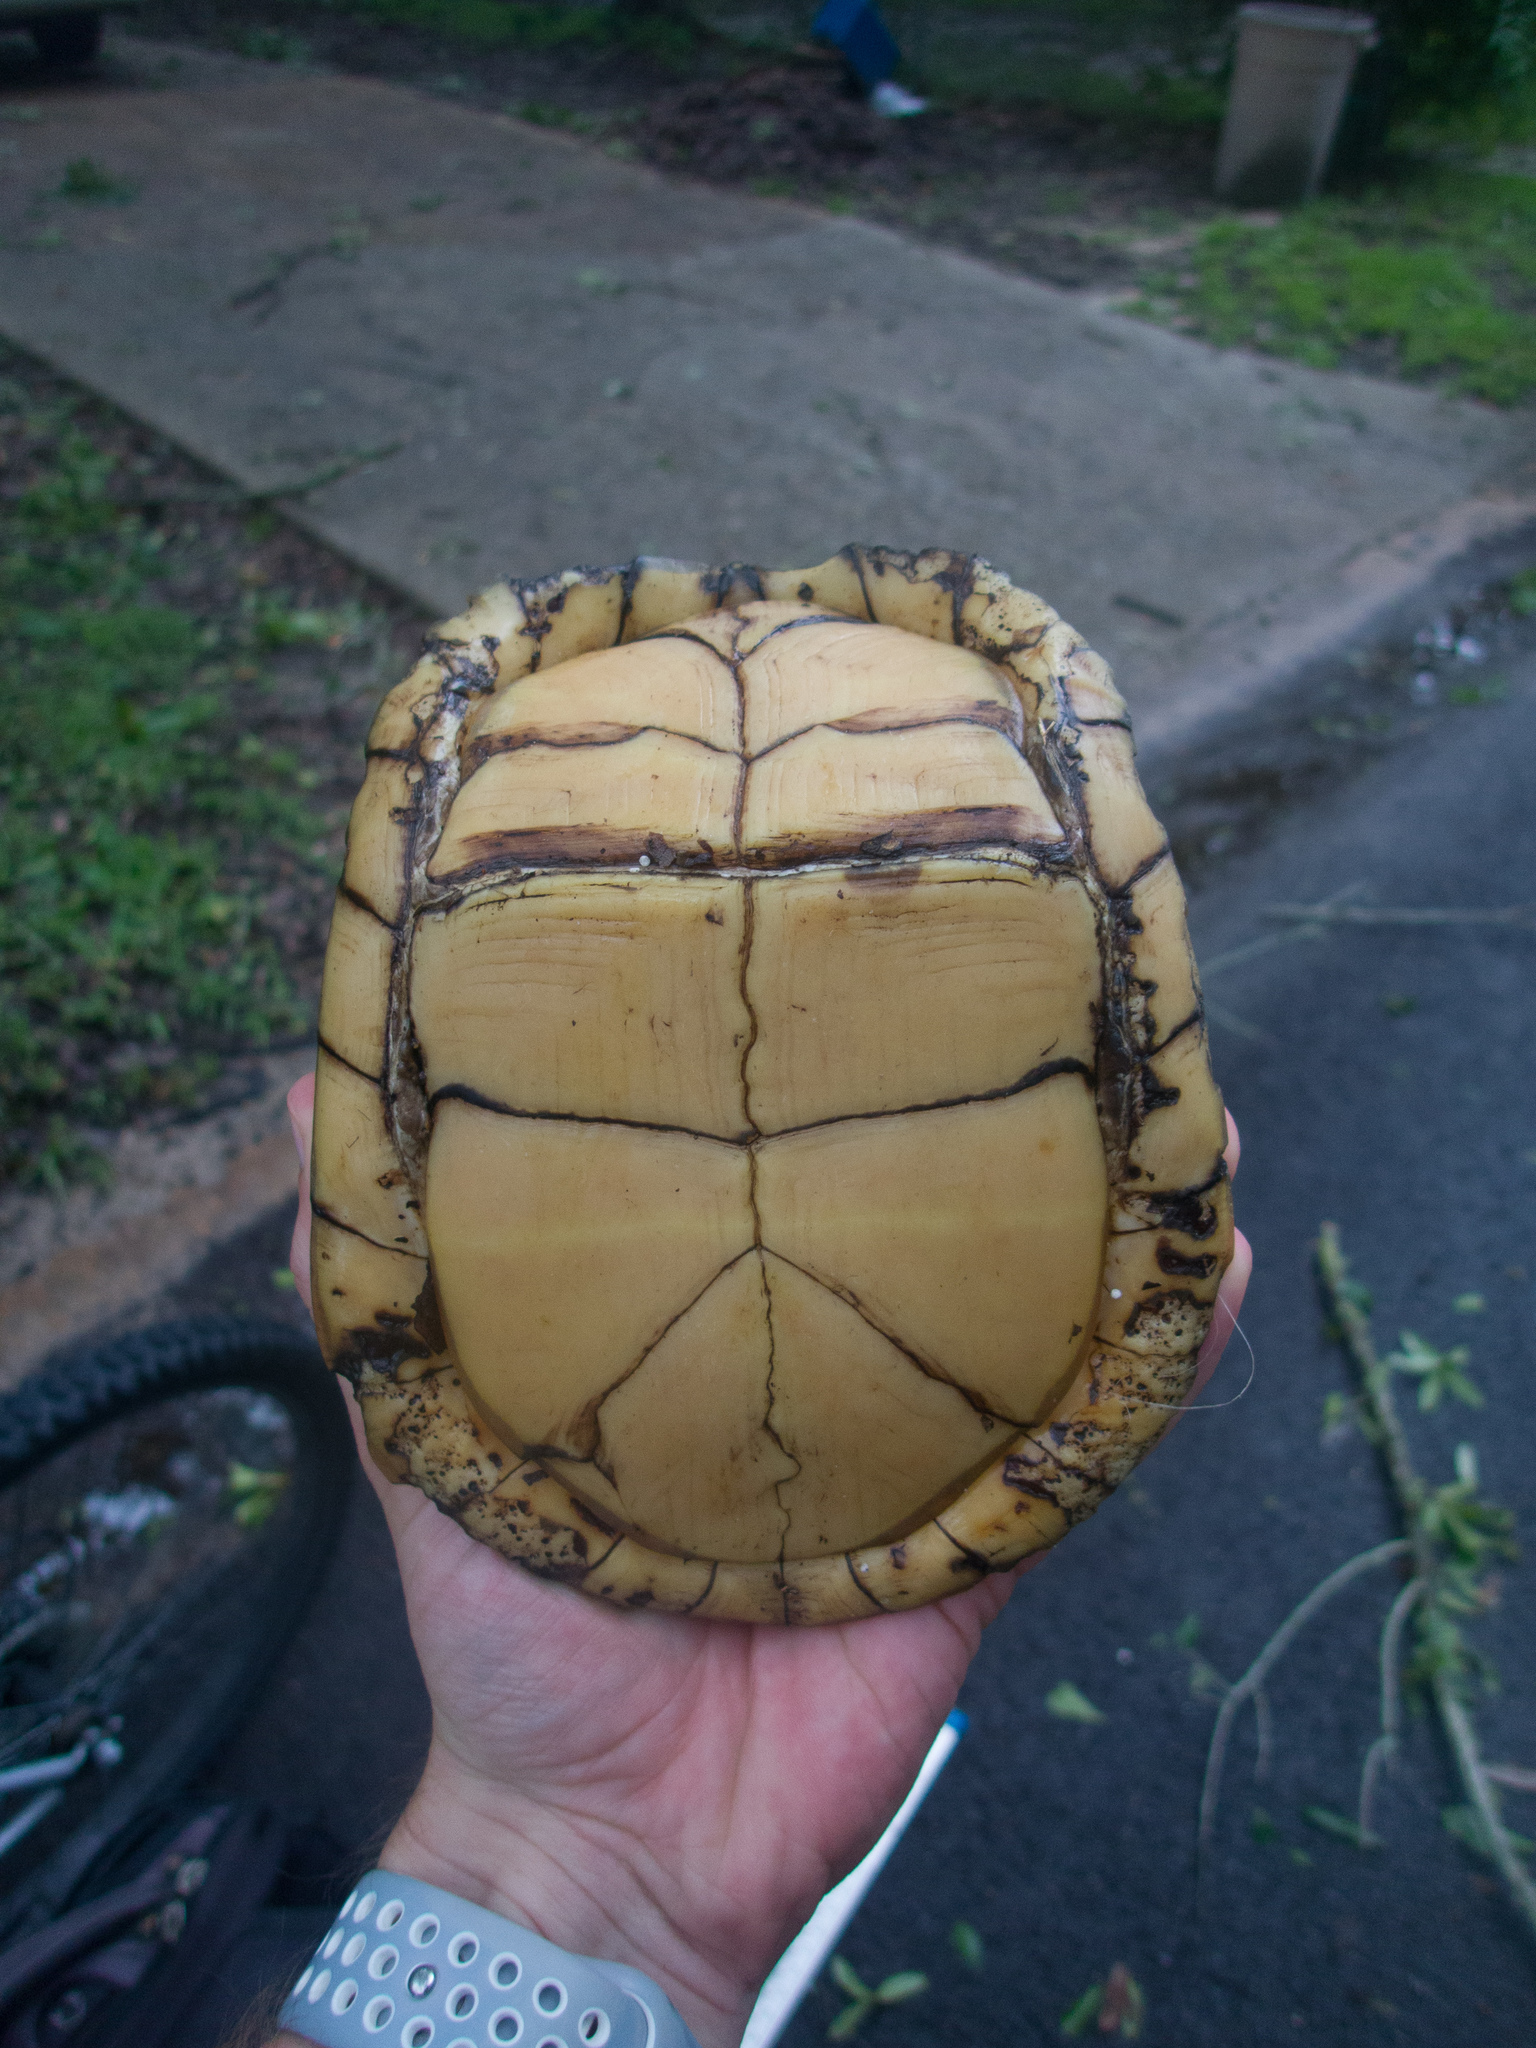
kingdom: Animalia
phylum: Chordata
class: Testudines
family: Emydidae
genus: Terrapene
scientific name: Terrapene carolina
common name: Common box turtle
